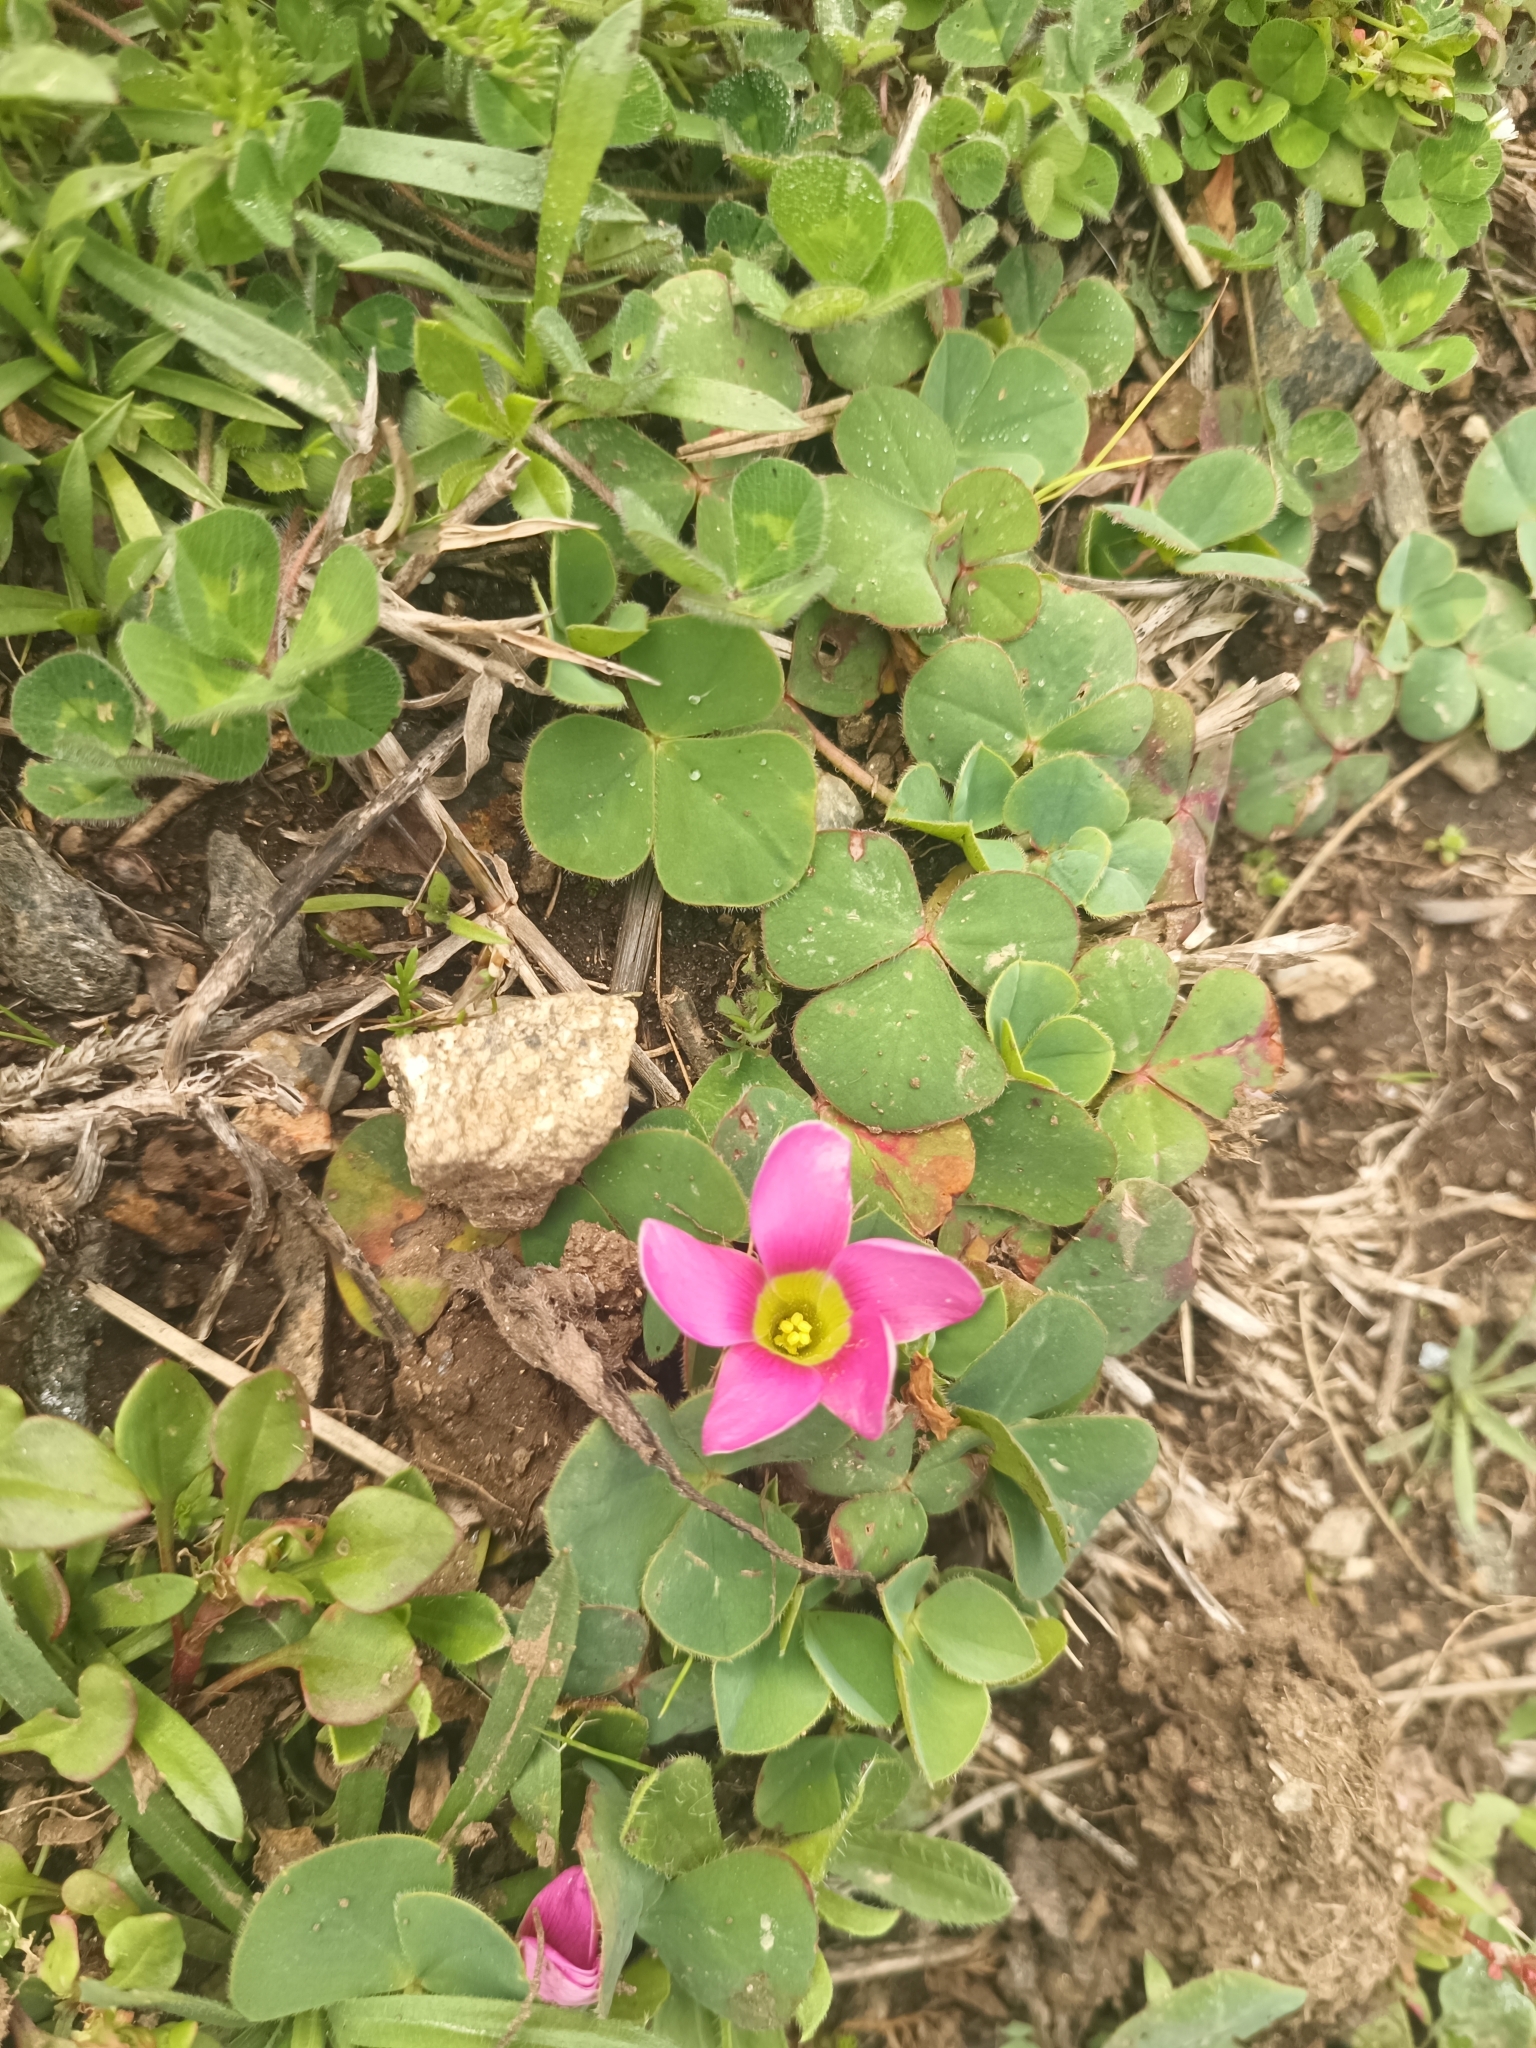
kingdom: Plantae
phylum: Tracheophyta
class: Magnoliopsida
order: Oxalidales
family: Oxalidaceae
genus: Oxalis
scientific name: Oxalis purpurea
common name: Purple woodsorrel
